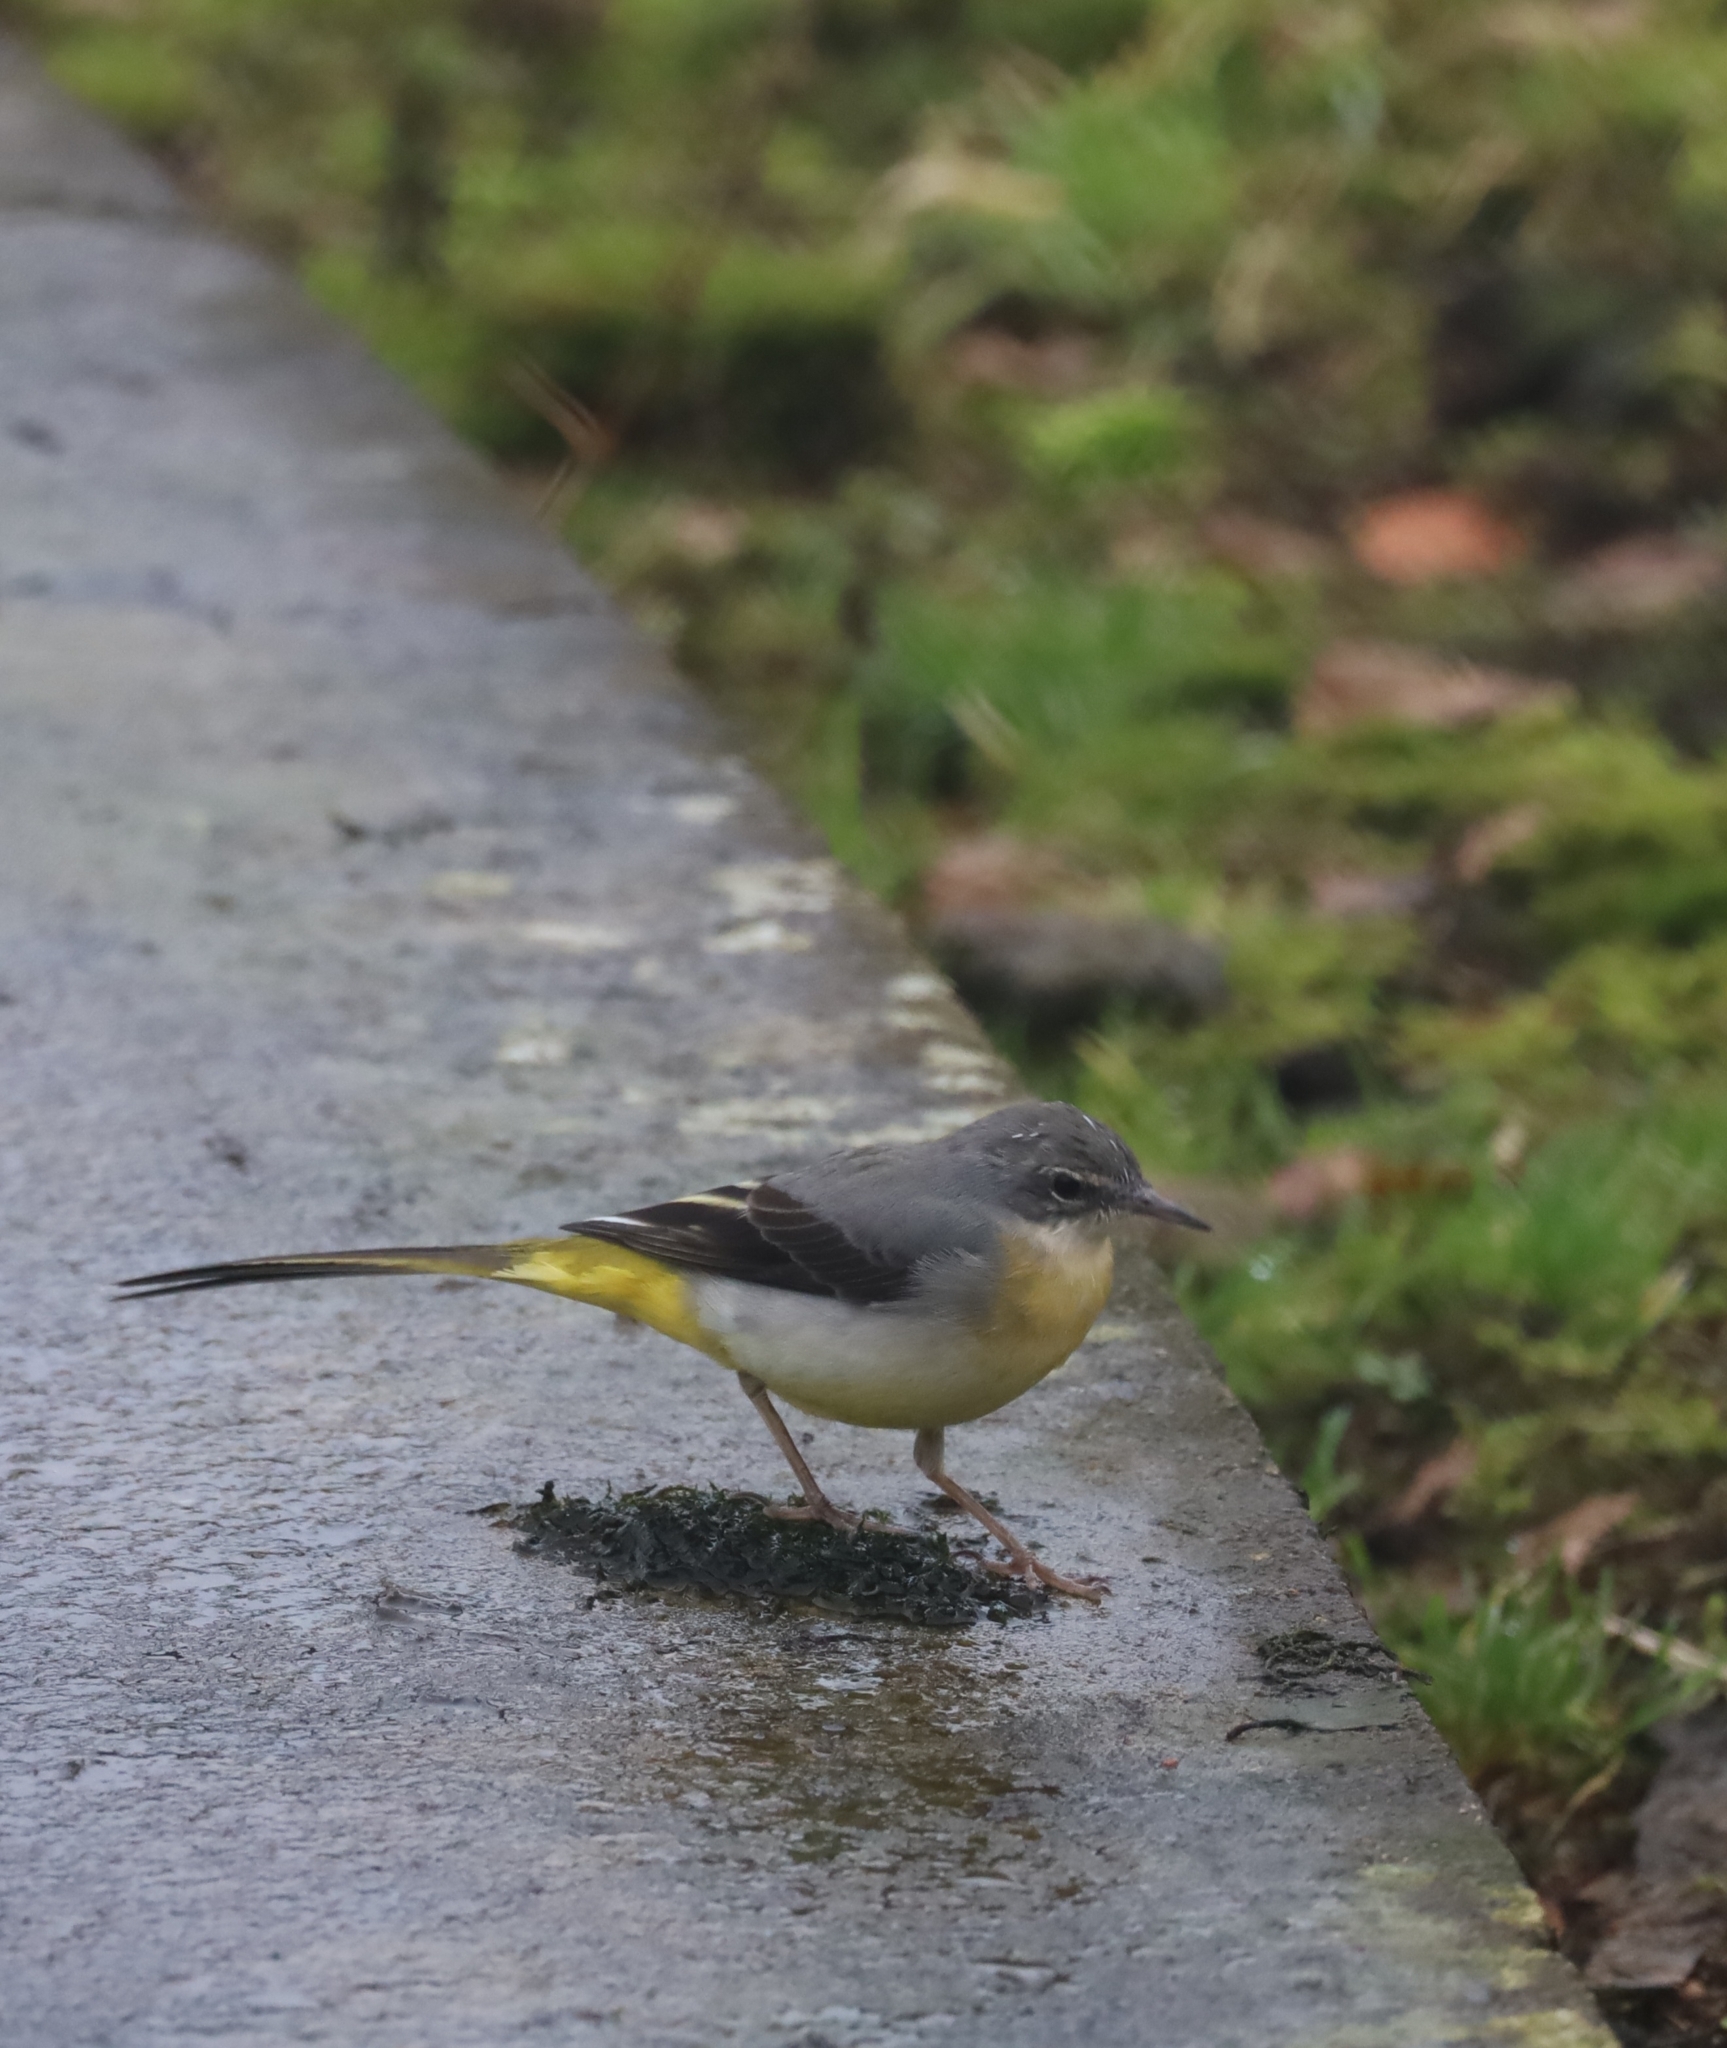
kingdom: Animalia
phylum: Chordata
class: Aves
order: Passeriformes
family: Motacillidae
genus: Motacilla
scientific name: Motacilla cinerea
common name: Grey wagtail
